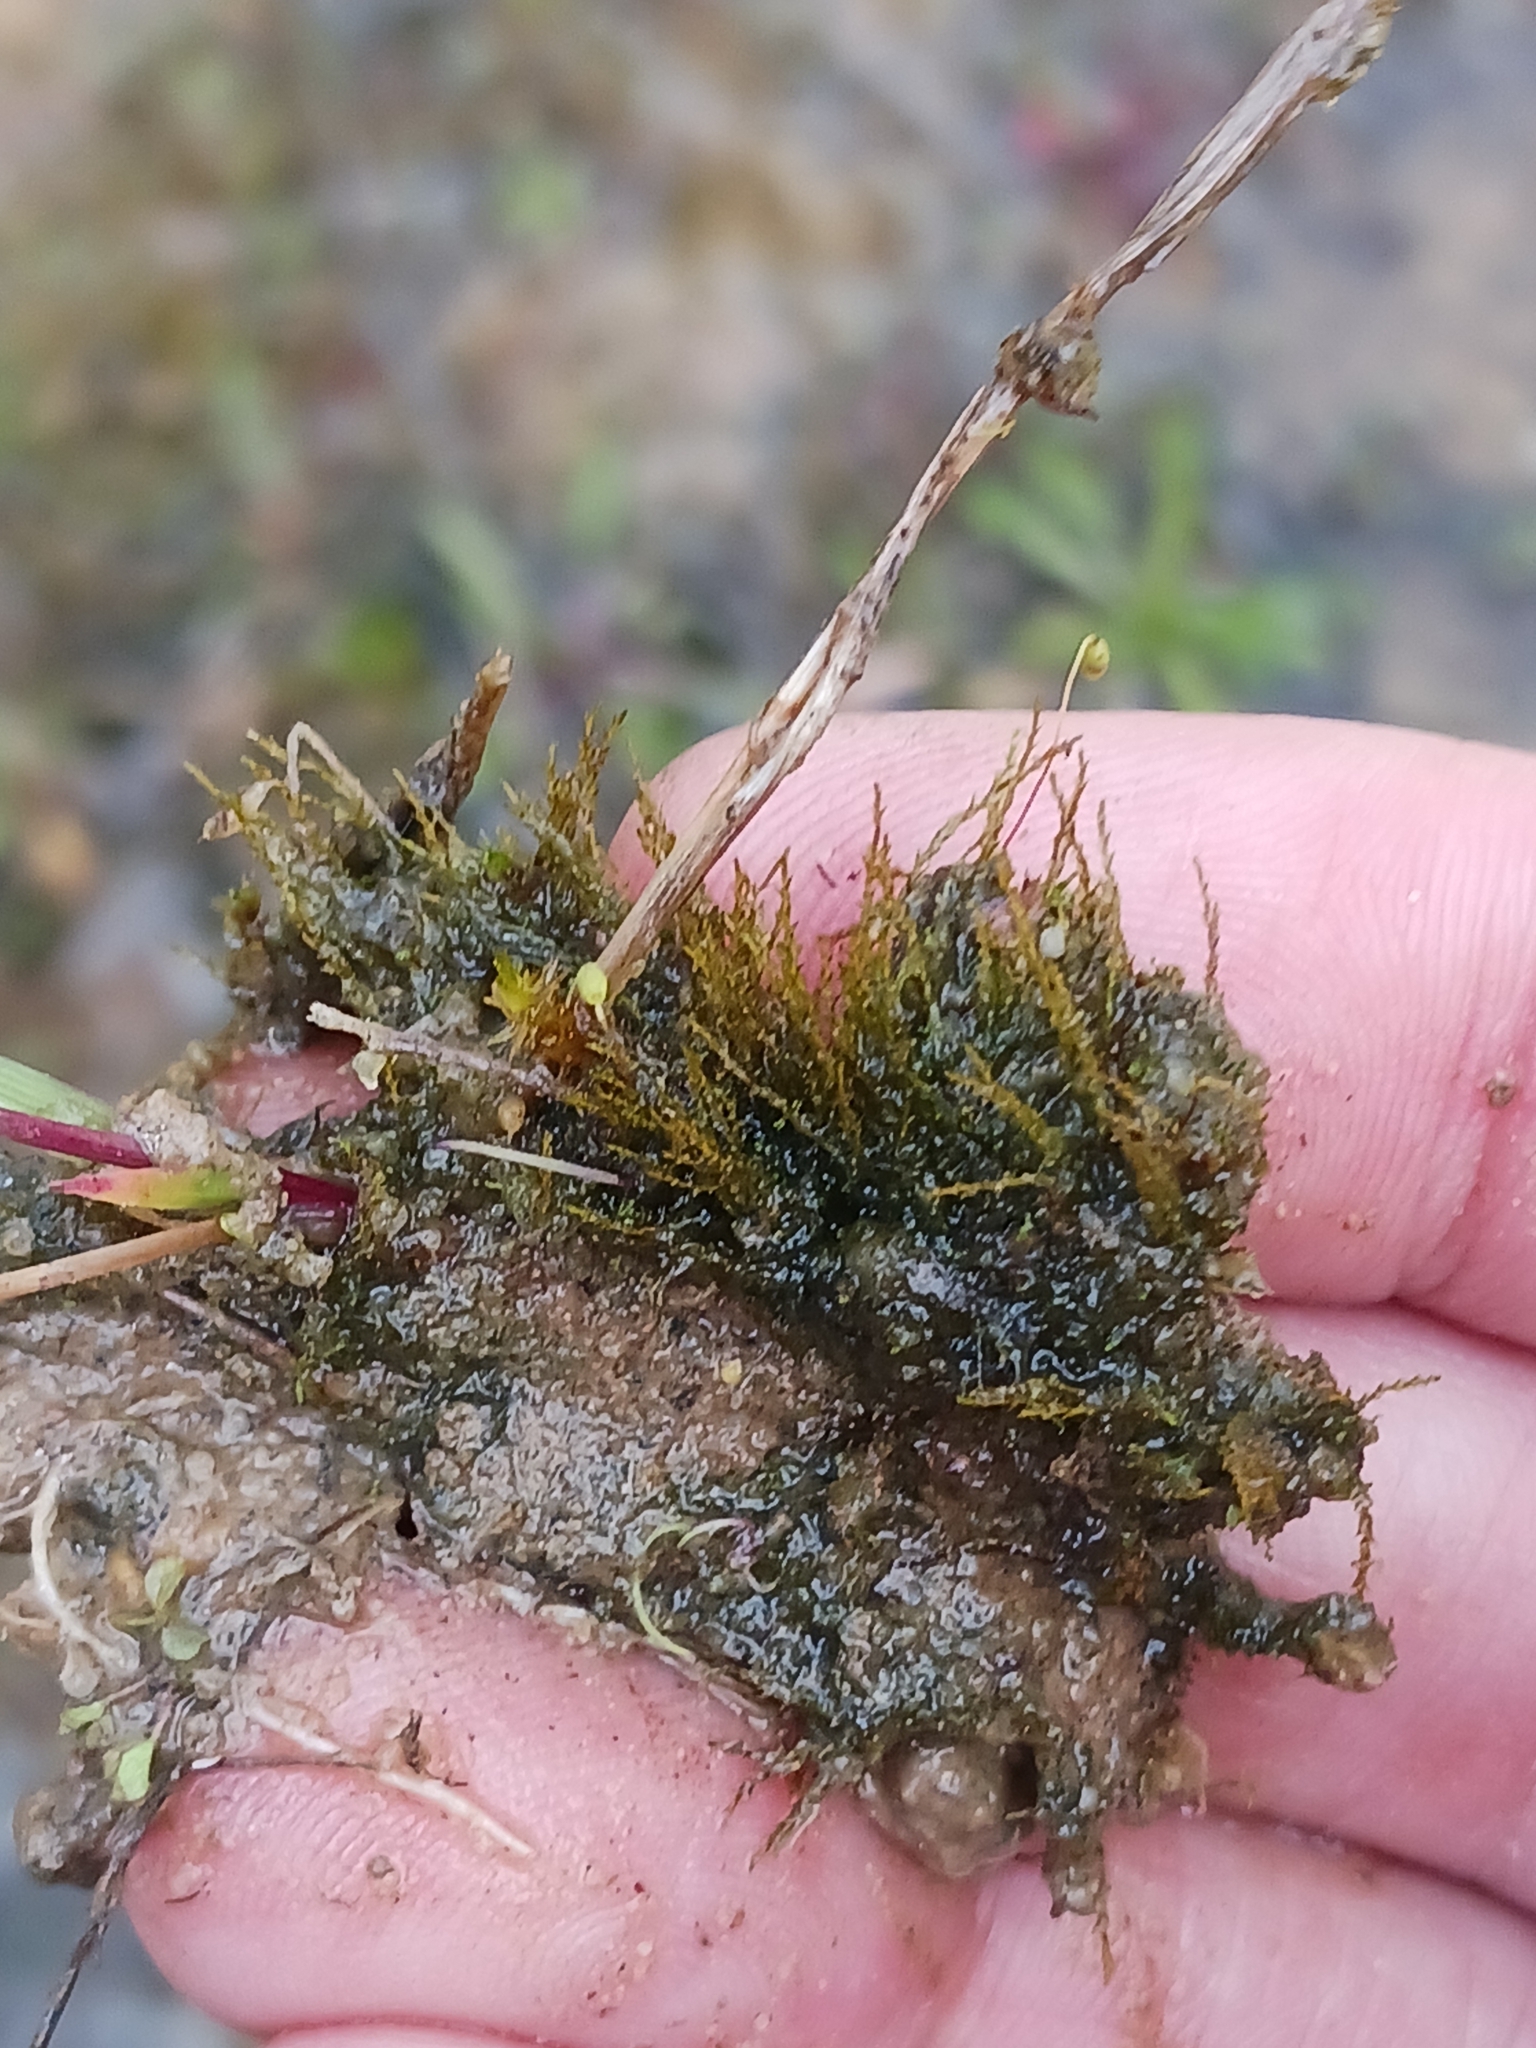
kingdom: Plantae
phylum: Bryophyta
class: Bryopsida
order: Archidiales
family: Archidiaceae
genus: Archidium
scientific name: Archidium alternifolium
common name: Clay earth-moss
